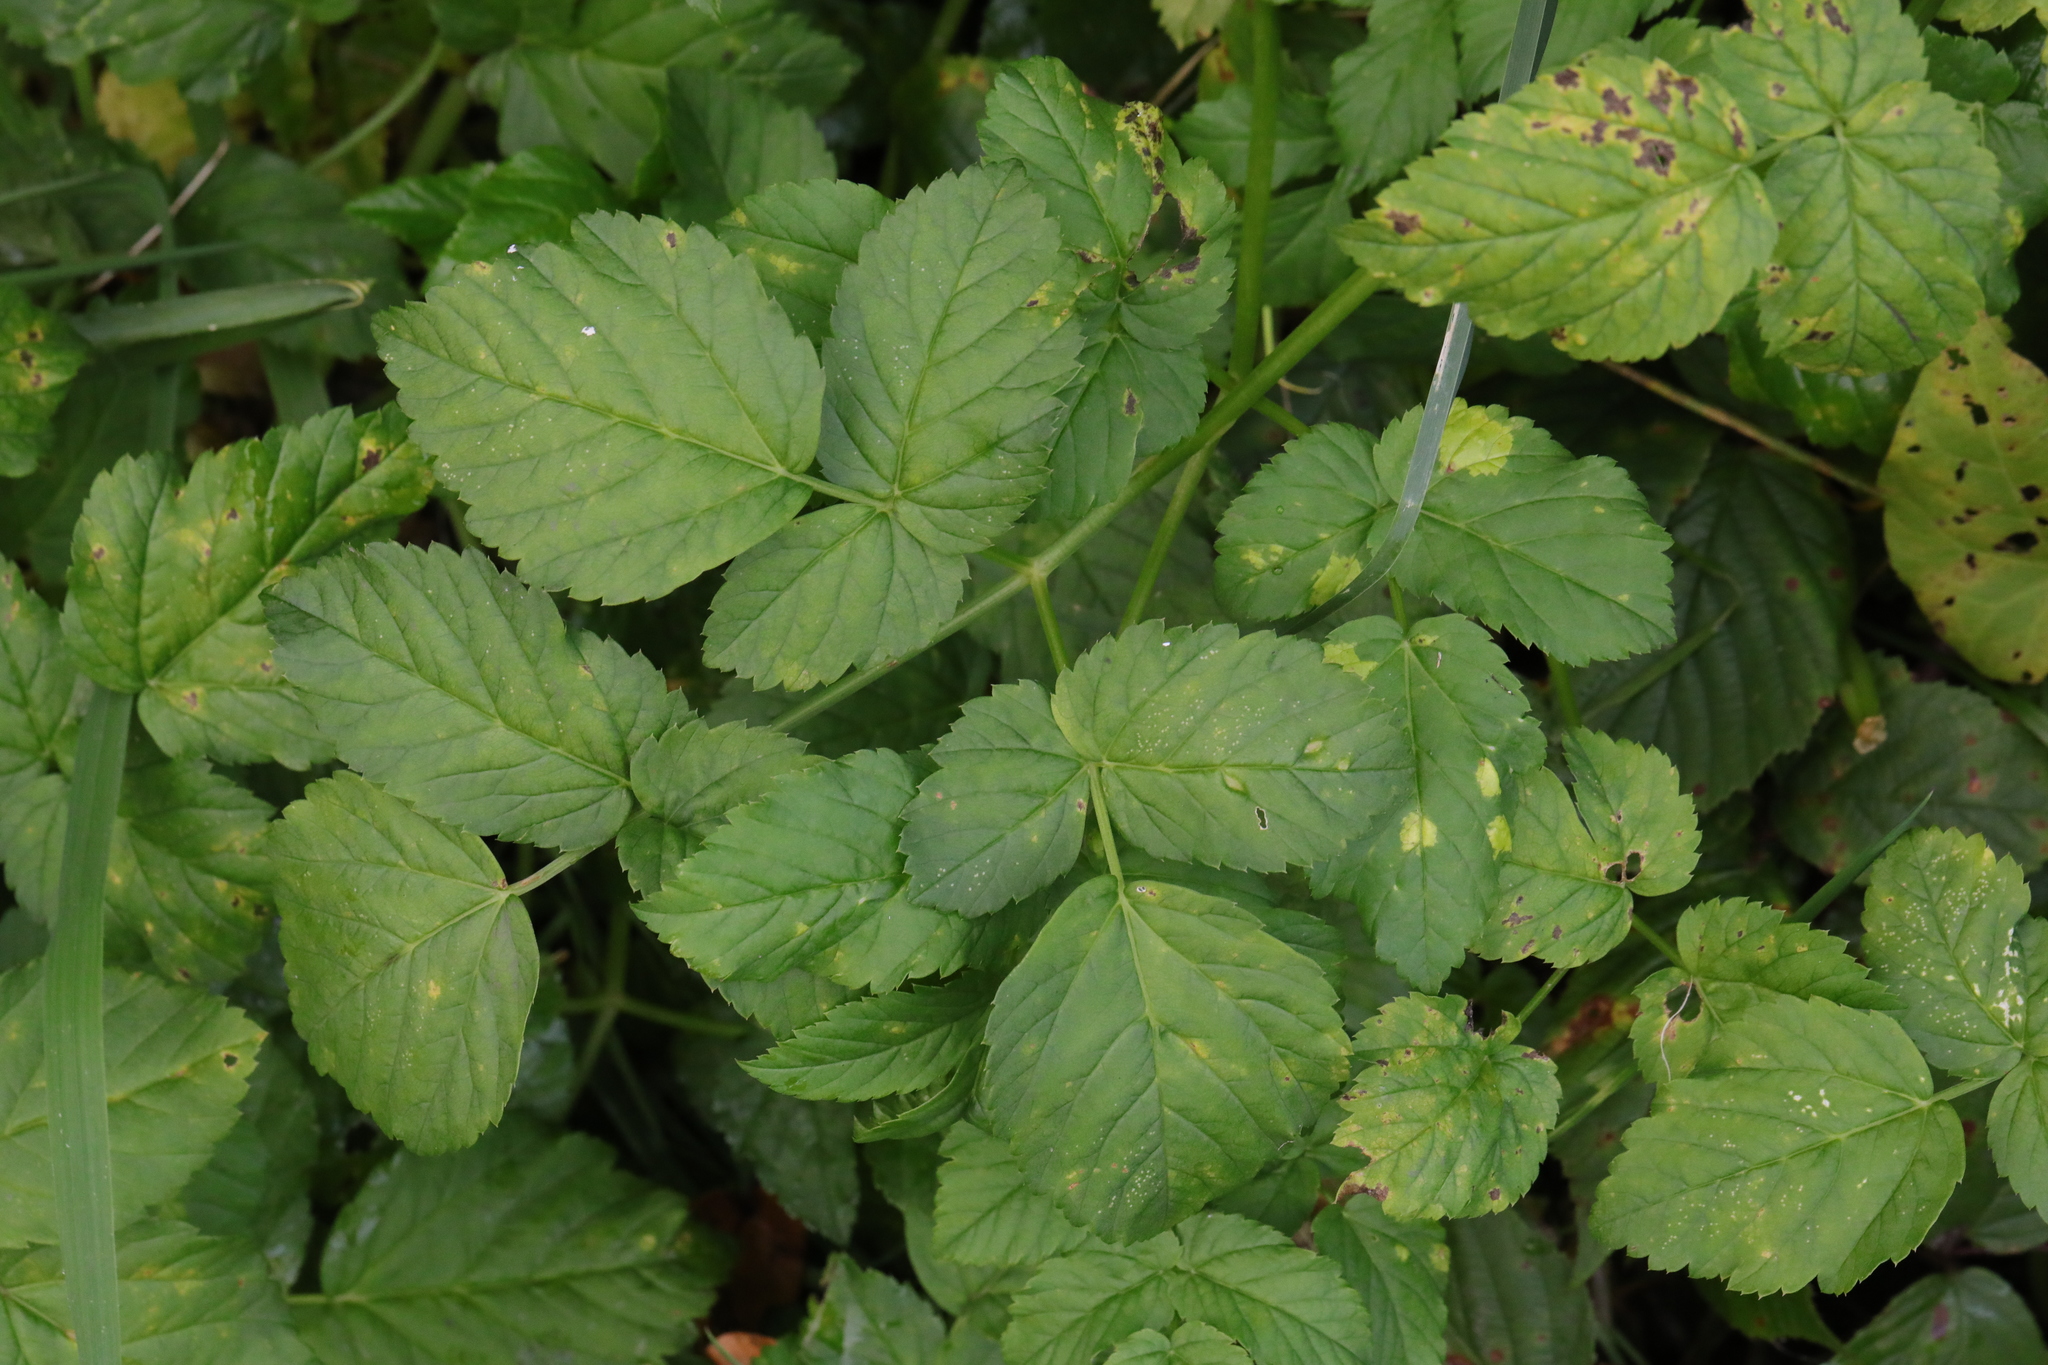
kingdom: Plantae
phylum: Tracheophyta
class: Magnoliopsida
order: Apiales
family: Apiaceae
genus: Aegopodium
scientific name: Aegopodium podagraria
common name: Ground-elder
